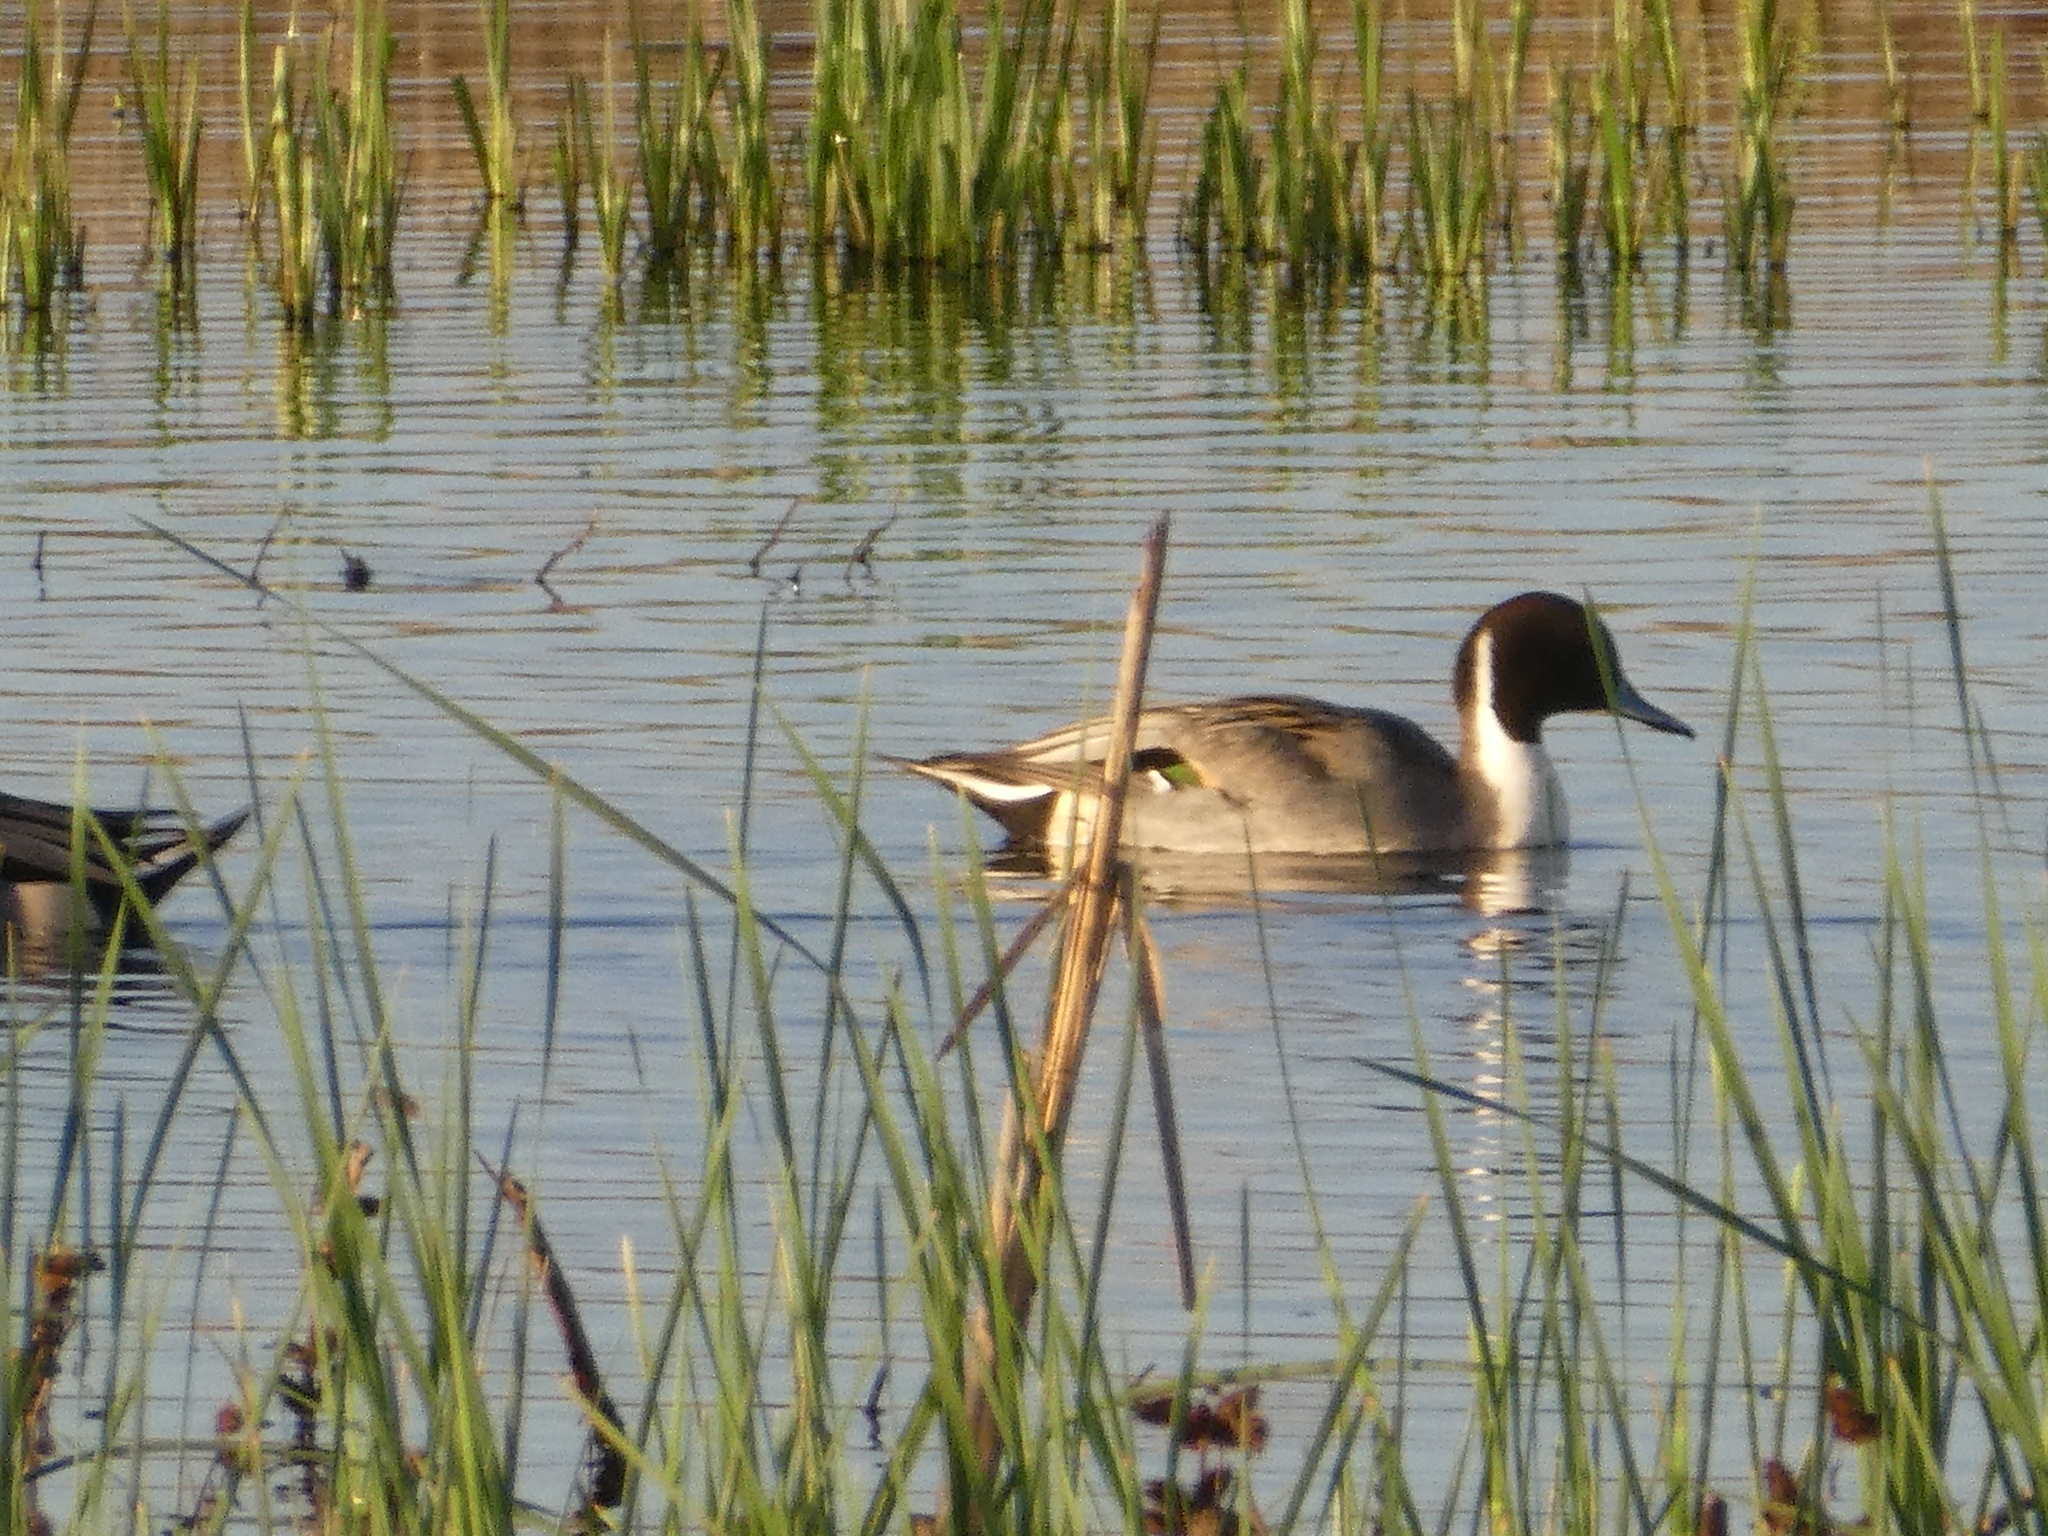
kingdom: Animalia
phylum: Chordata
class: Aves
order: Anseriformes
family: Anatidae
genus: Anas
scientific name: Anas acuta
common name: Northern pintail
